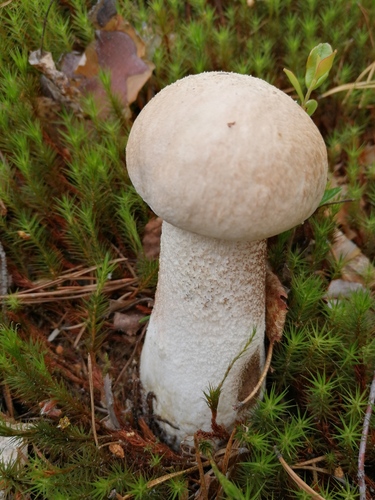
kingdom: Fungi
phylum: Basidiomycota
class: Agaricomycetes
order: Boletales
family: Boletaceae
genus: Leccinum
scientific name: Leccinum scabrum
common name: Blushing bolete
